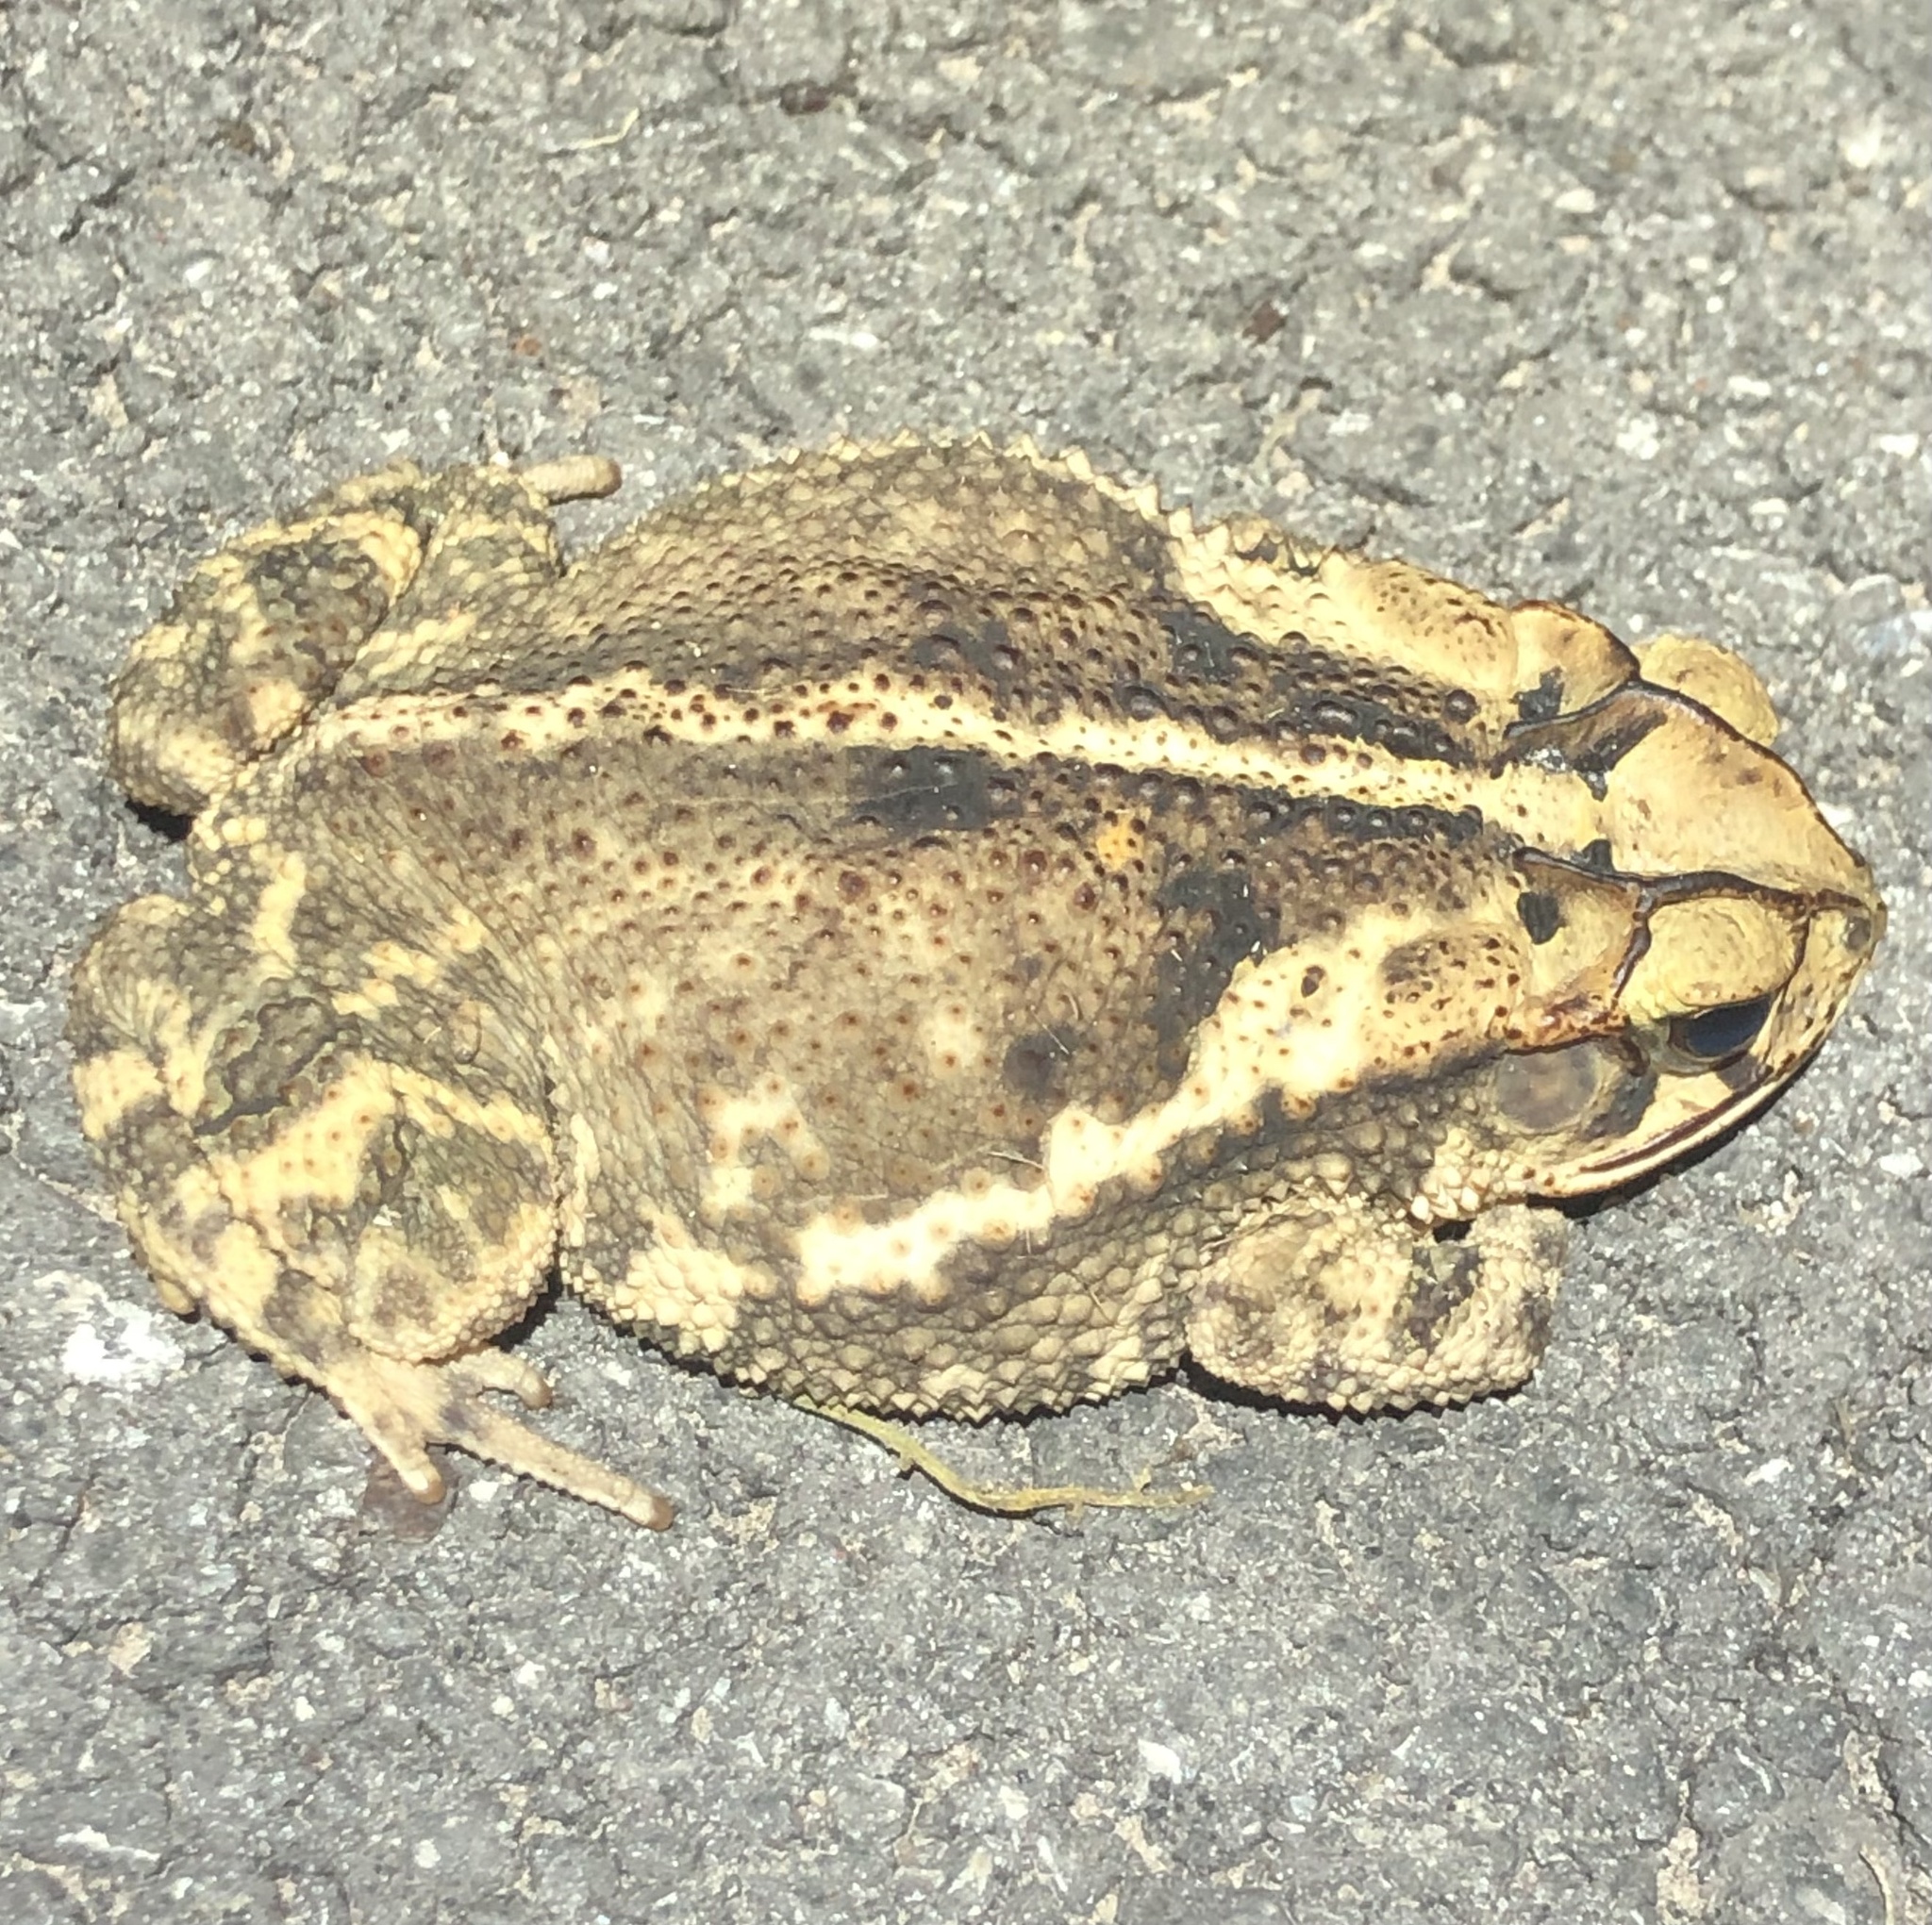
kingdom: Animalia
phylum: Chordata
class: Amphibia
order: Anura
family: Bufonidae
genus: Incilius
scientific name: Incilius nebulifer
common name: Gulf coast toad
